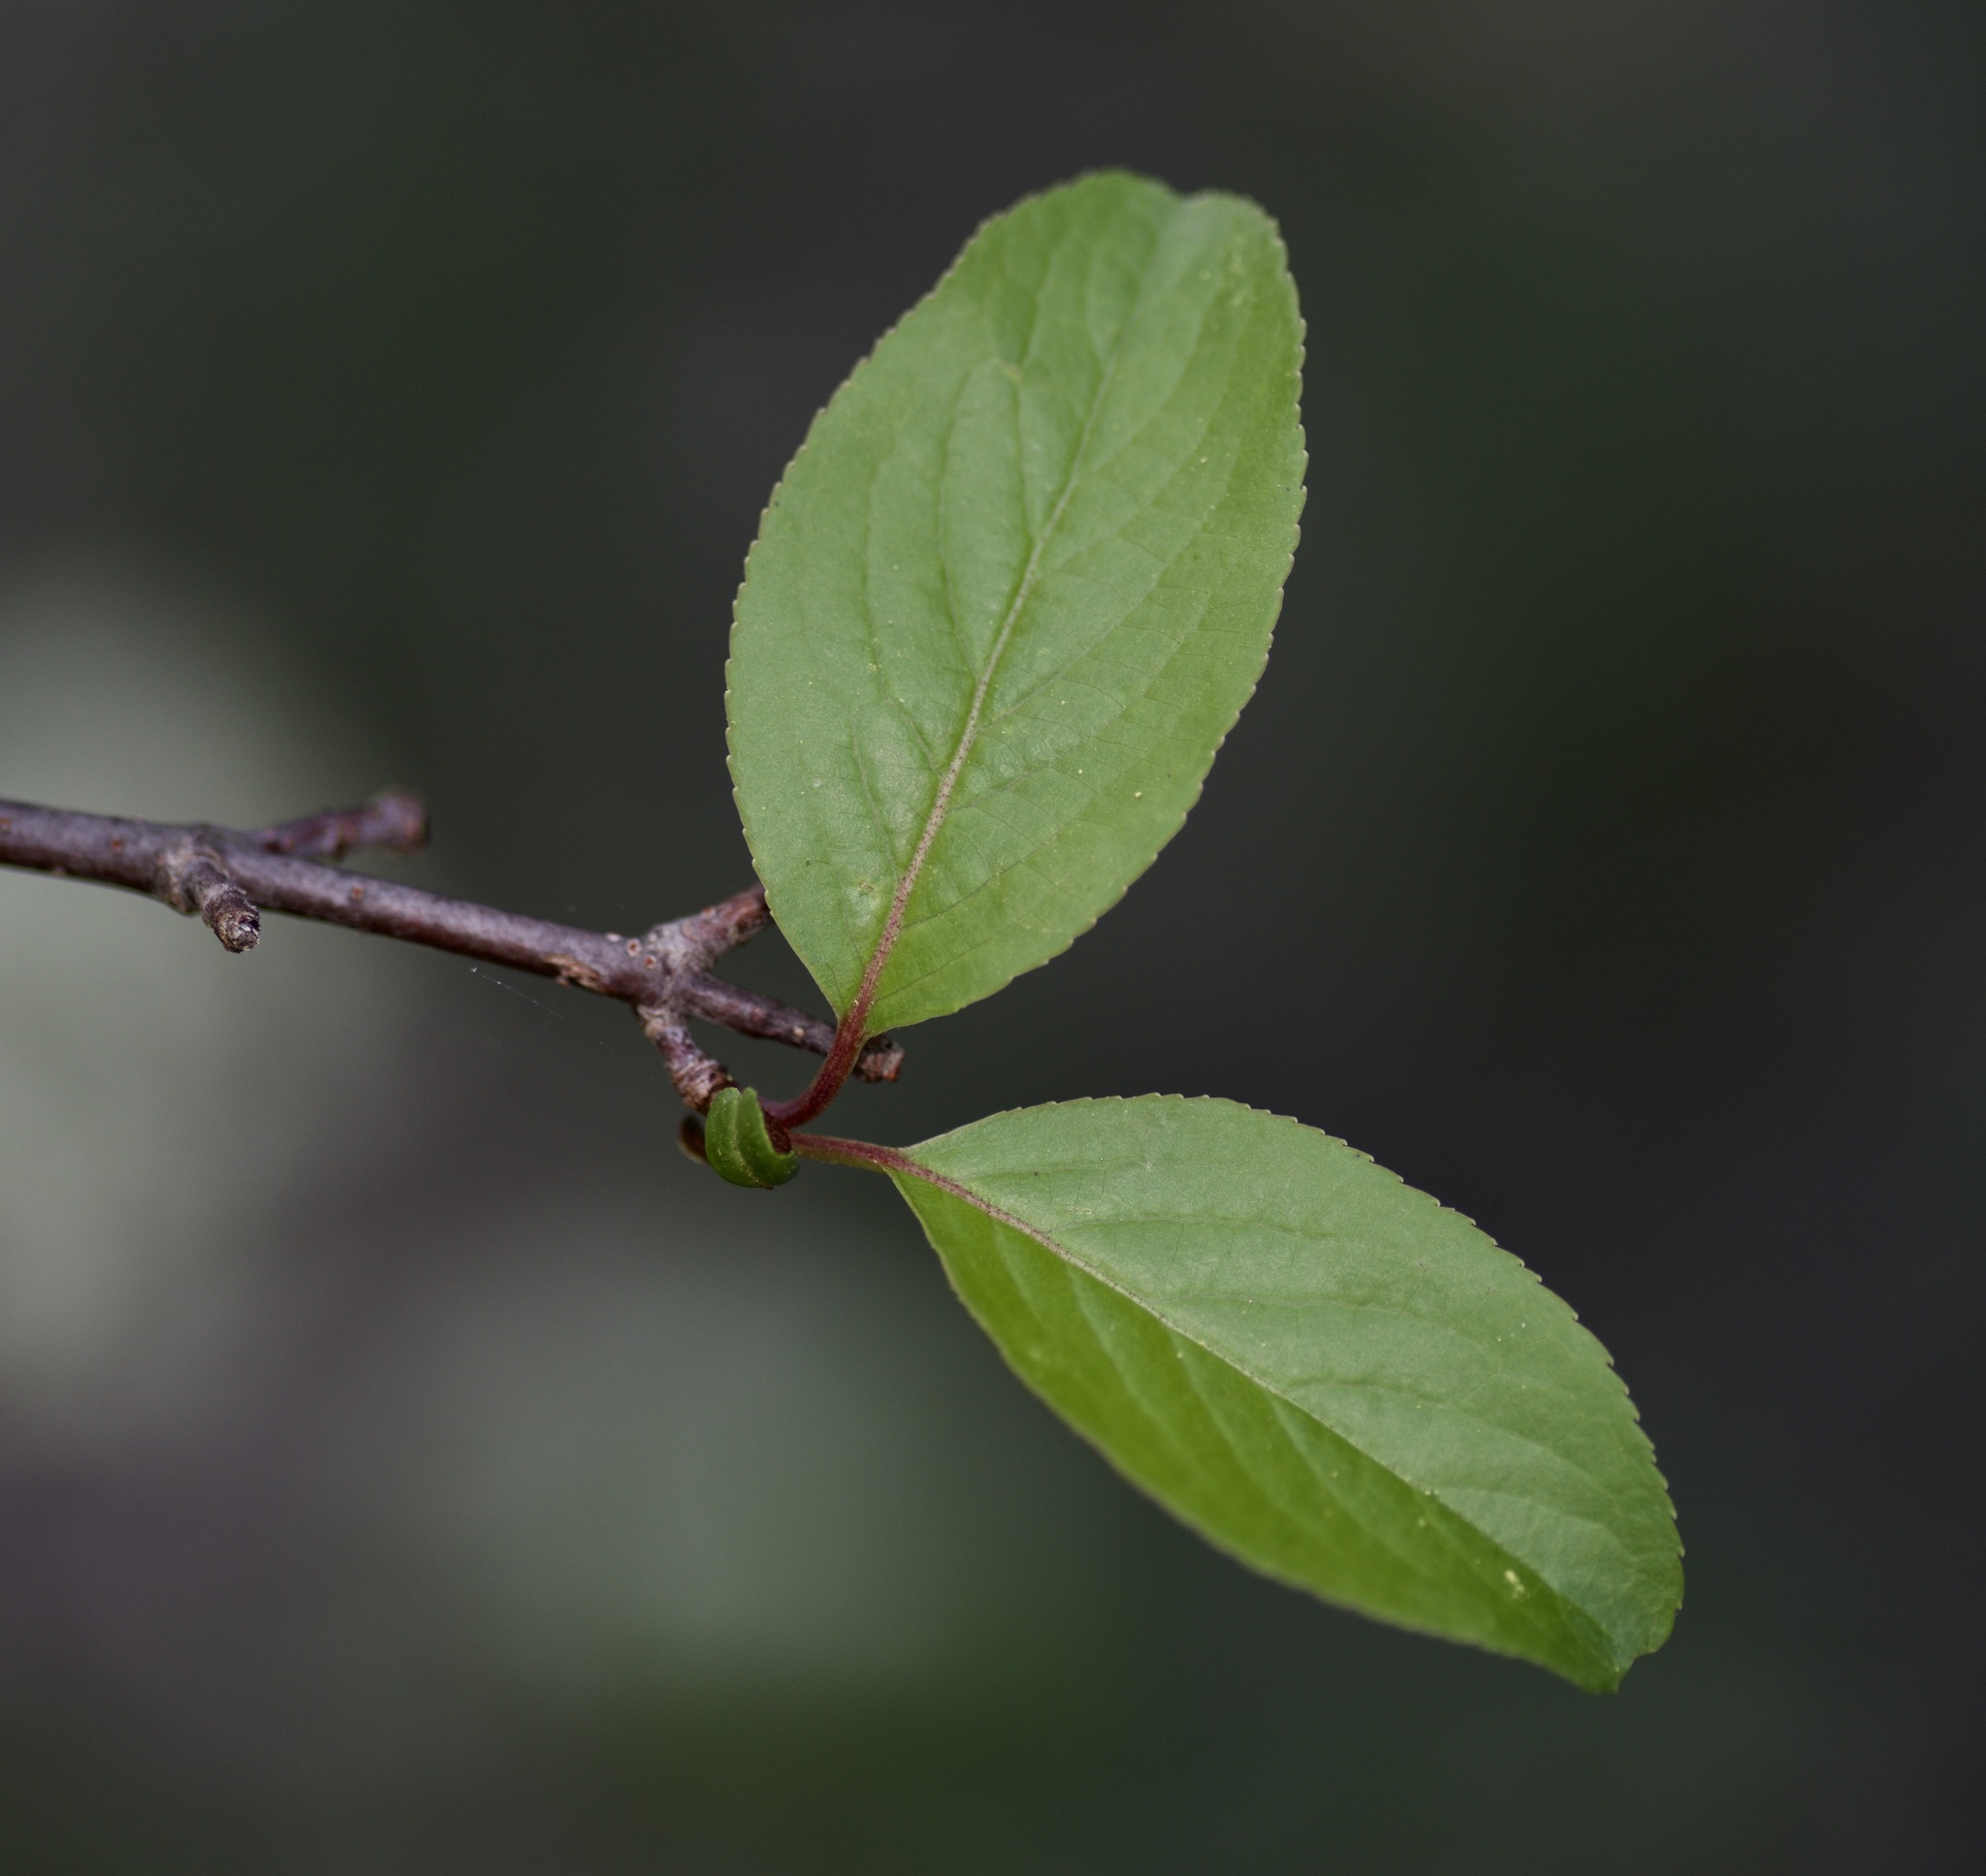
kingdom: Plantae
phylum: Tracheophyta
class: Magnoliopsida
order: Dipsacales
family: Viburnaceae
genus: Viburnum
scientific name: Viburnum rufidulum
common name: Blue haw
